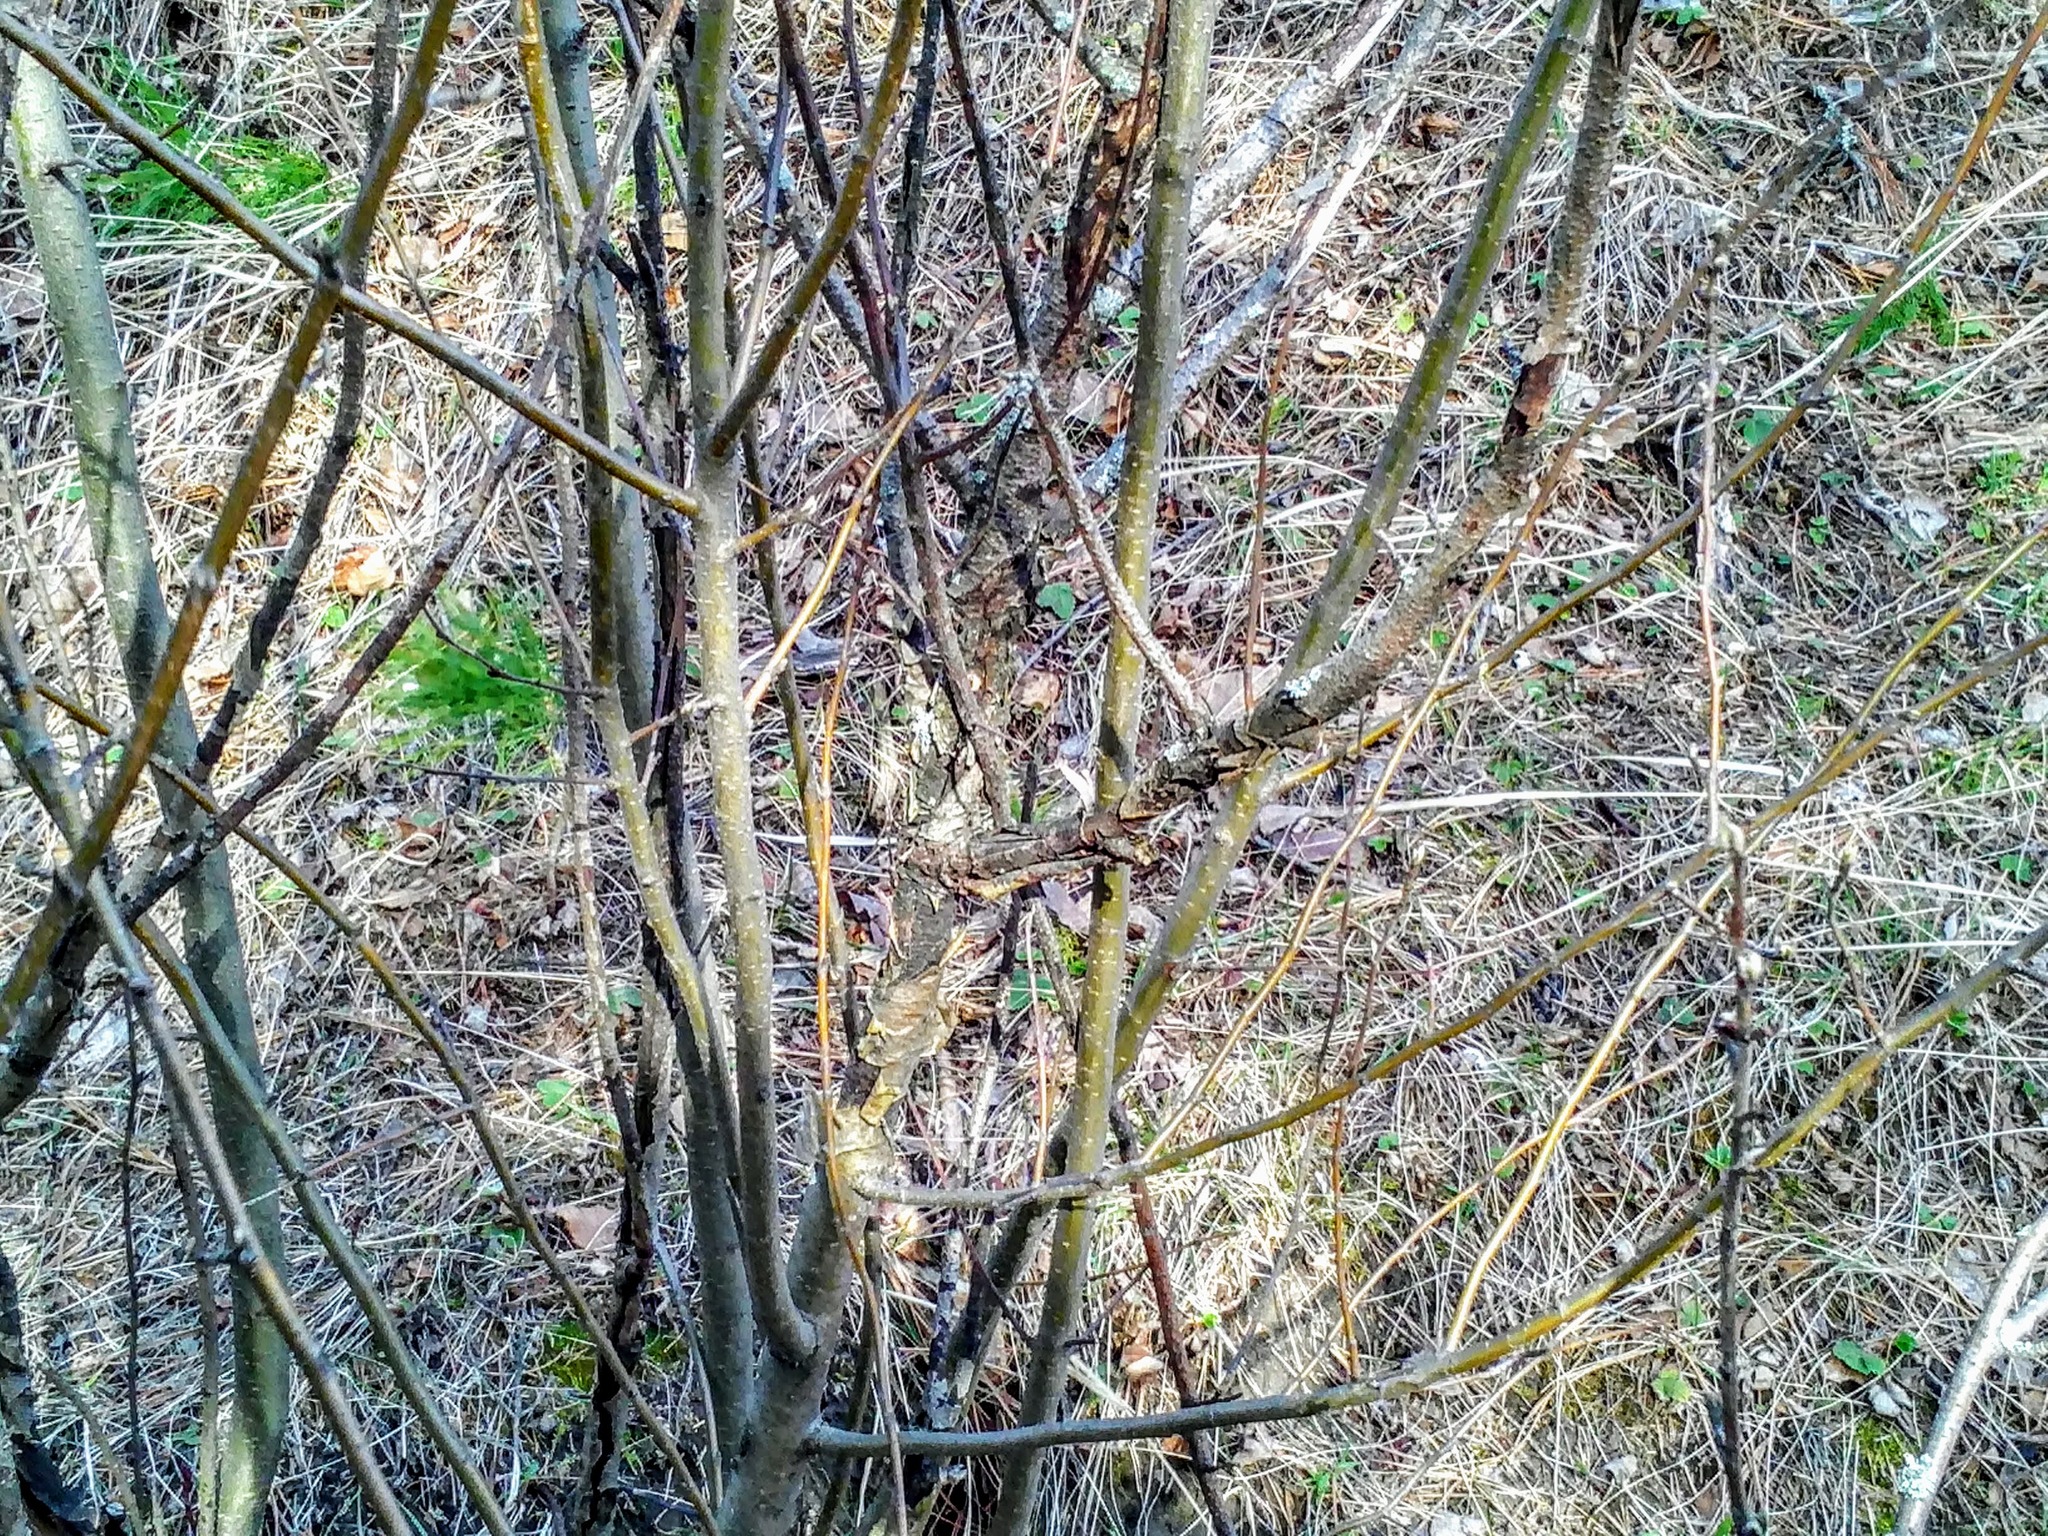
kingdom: Plantae
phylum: Tracheophyta
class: Magnoliopsida
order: Rosales
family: Rosaceae
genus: Cotoneaster
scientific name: Cotoneaster melanocarpus
